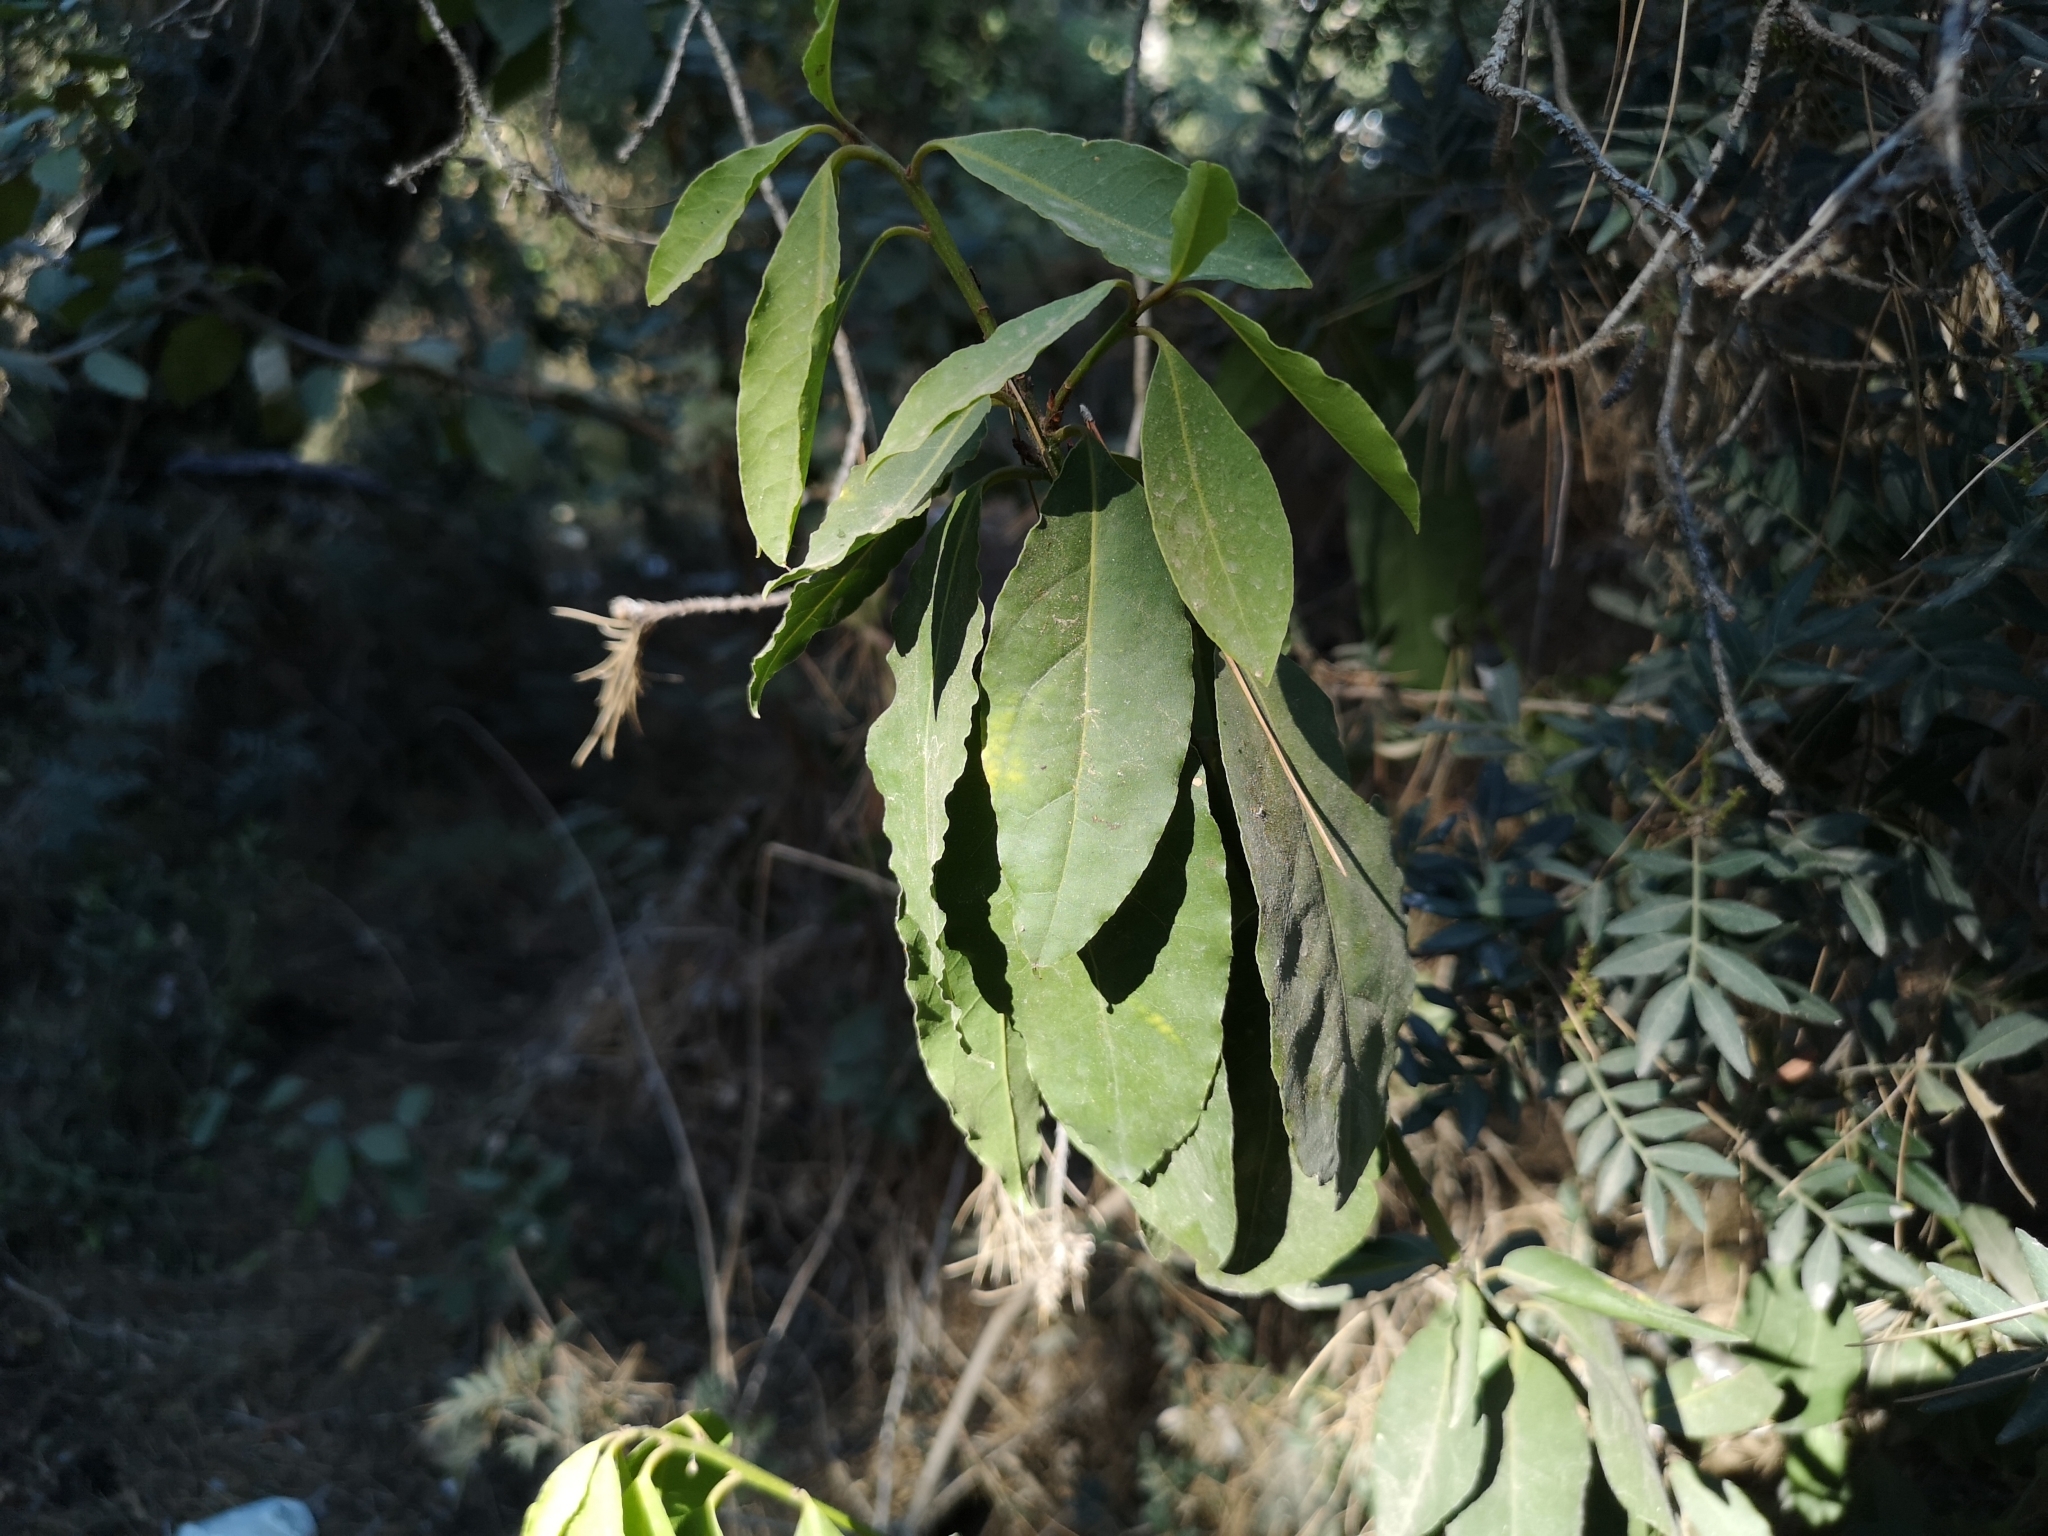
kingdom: Plantae
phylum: Tracheophyta
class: Magnoliopsida
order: Laurales
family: Lauraceae
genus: Laurus
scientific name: Laurus nobilis
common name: Bay
